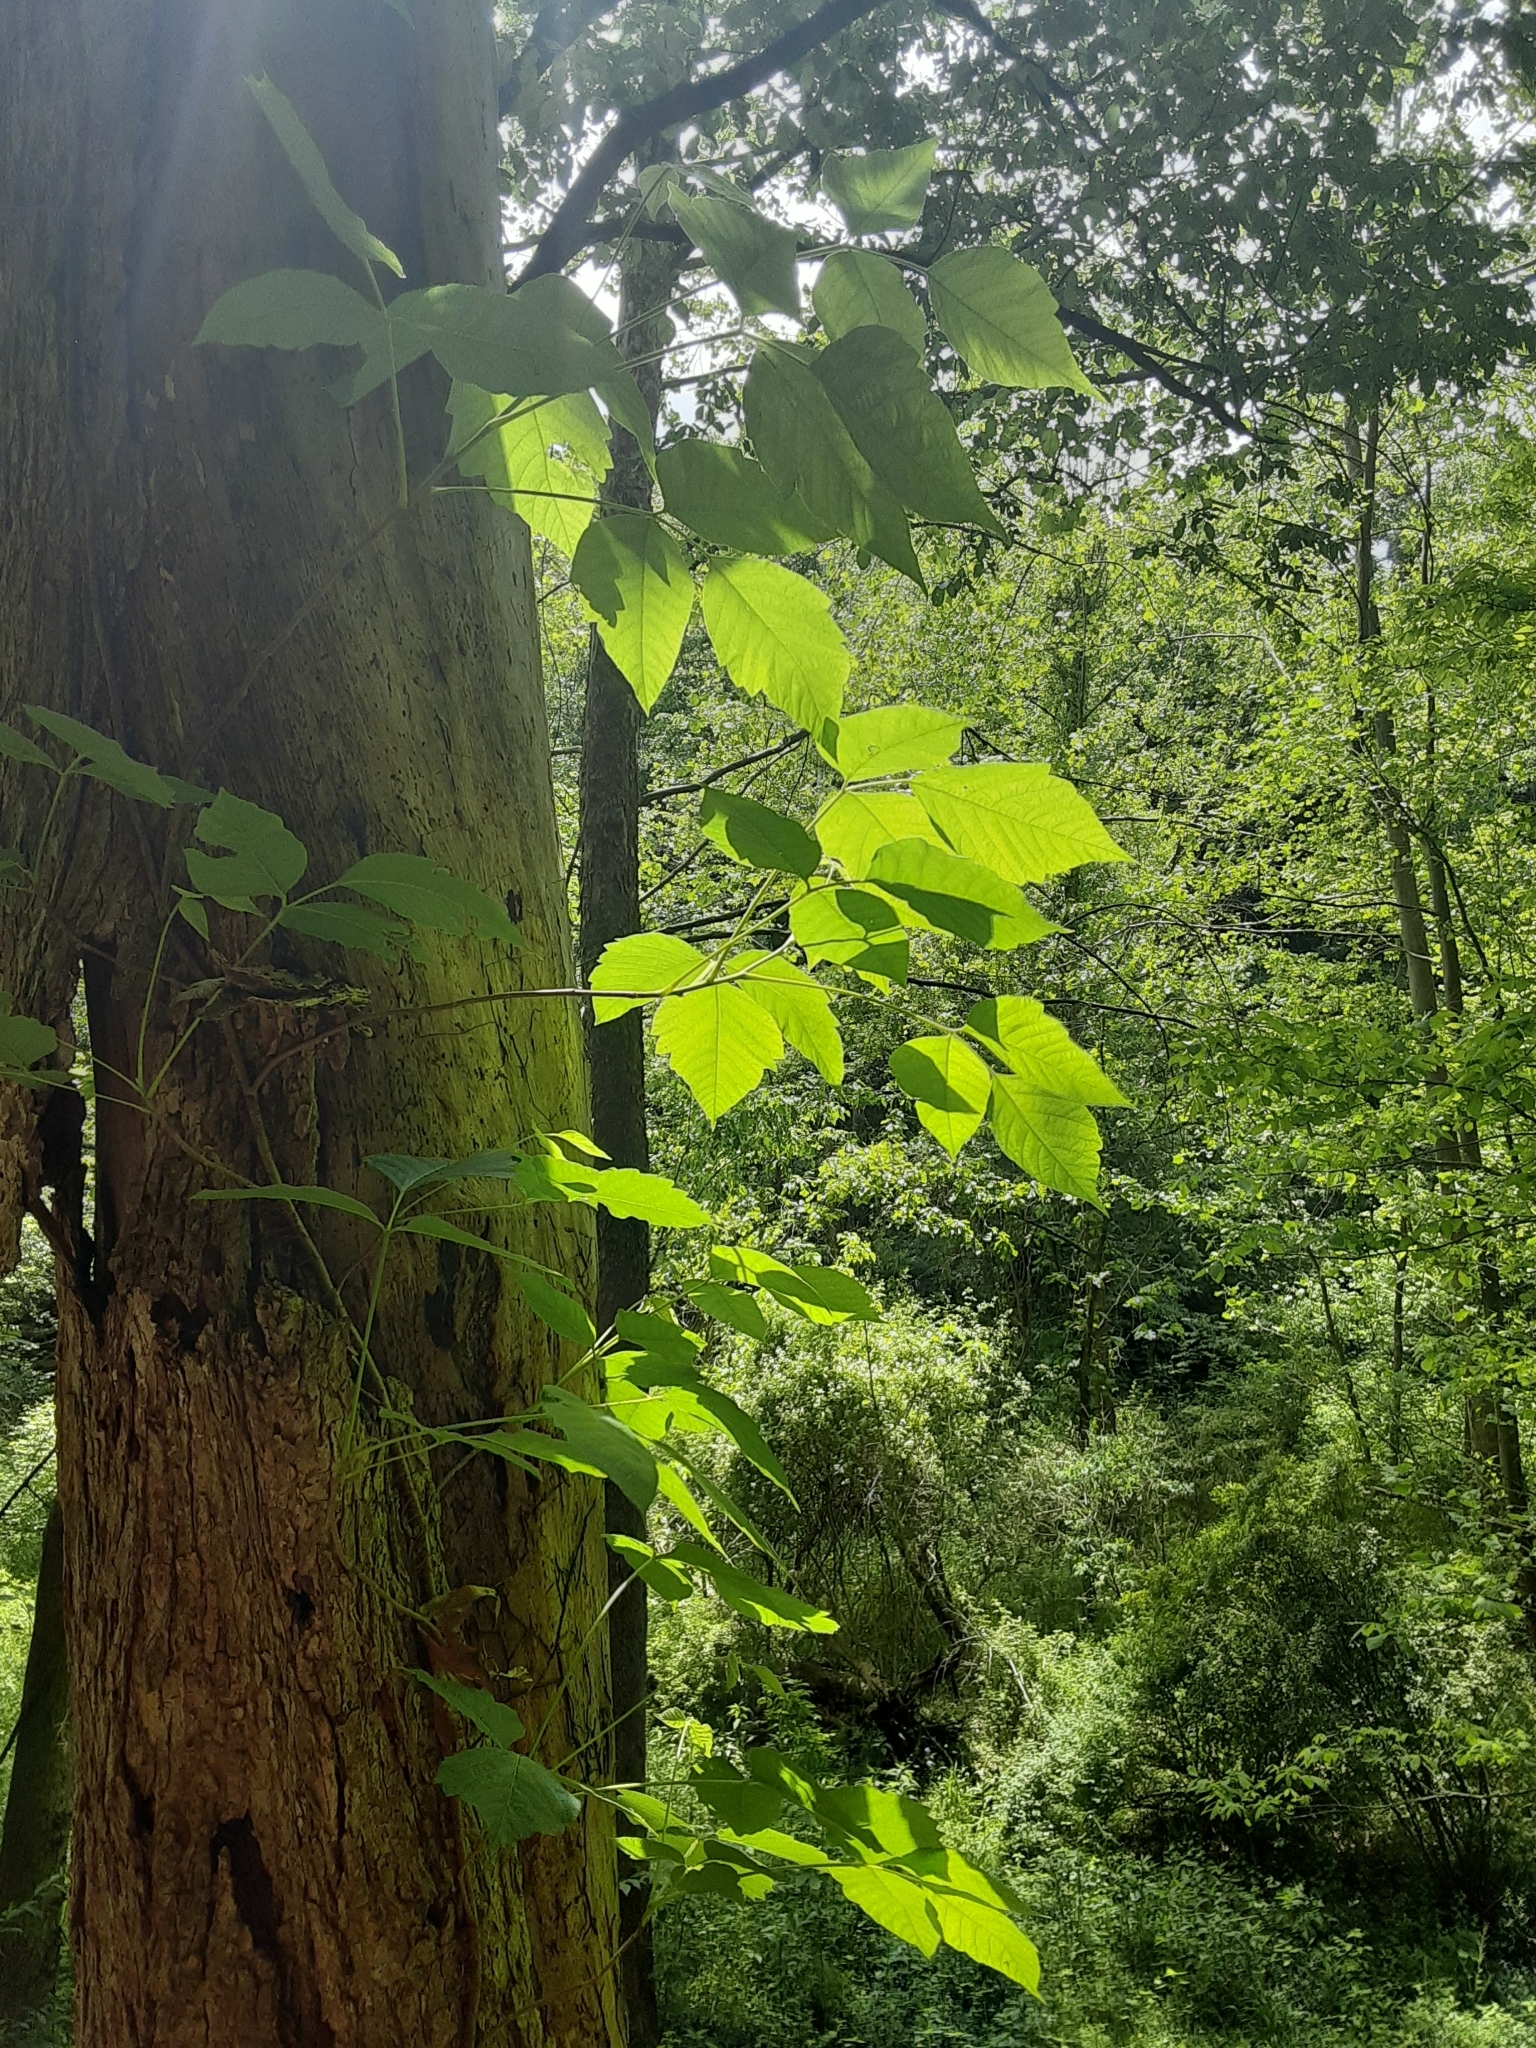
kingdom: Plantae
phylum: Tracheophyta
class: Magnoliopsida
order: Sapindales
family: Anacardiaceae
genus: Toxicodendron
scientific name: Toxicodendron radicans
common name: Poison ivy
